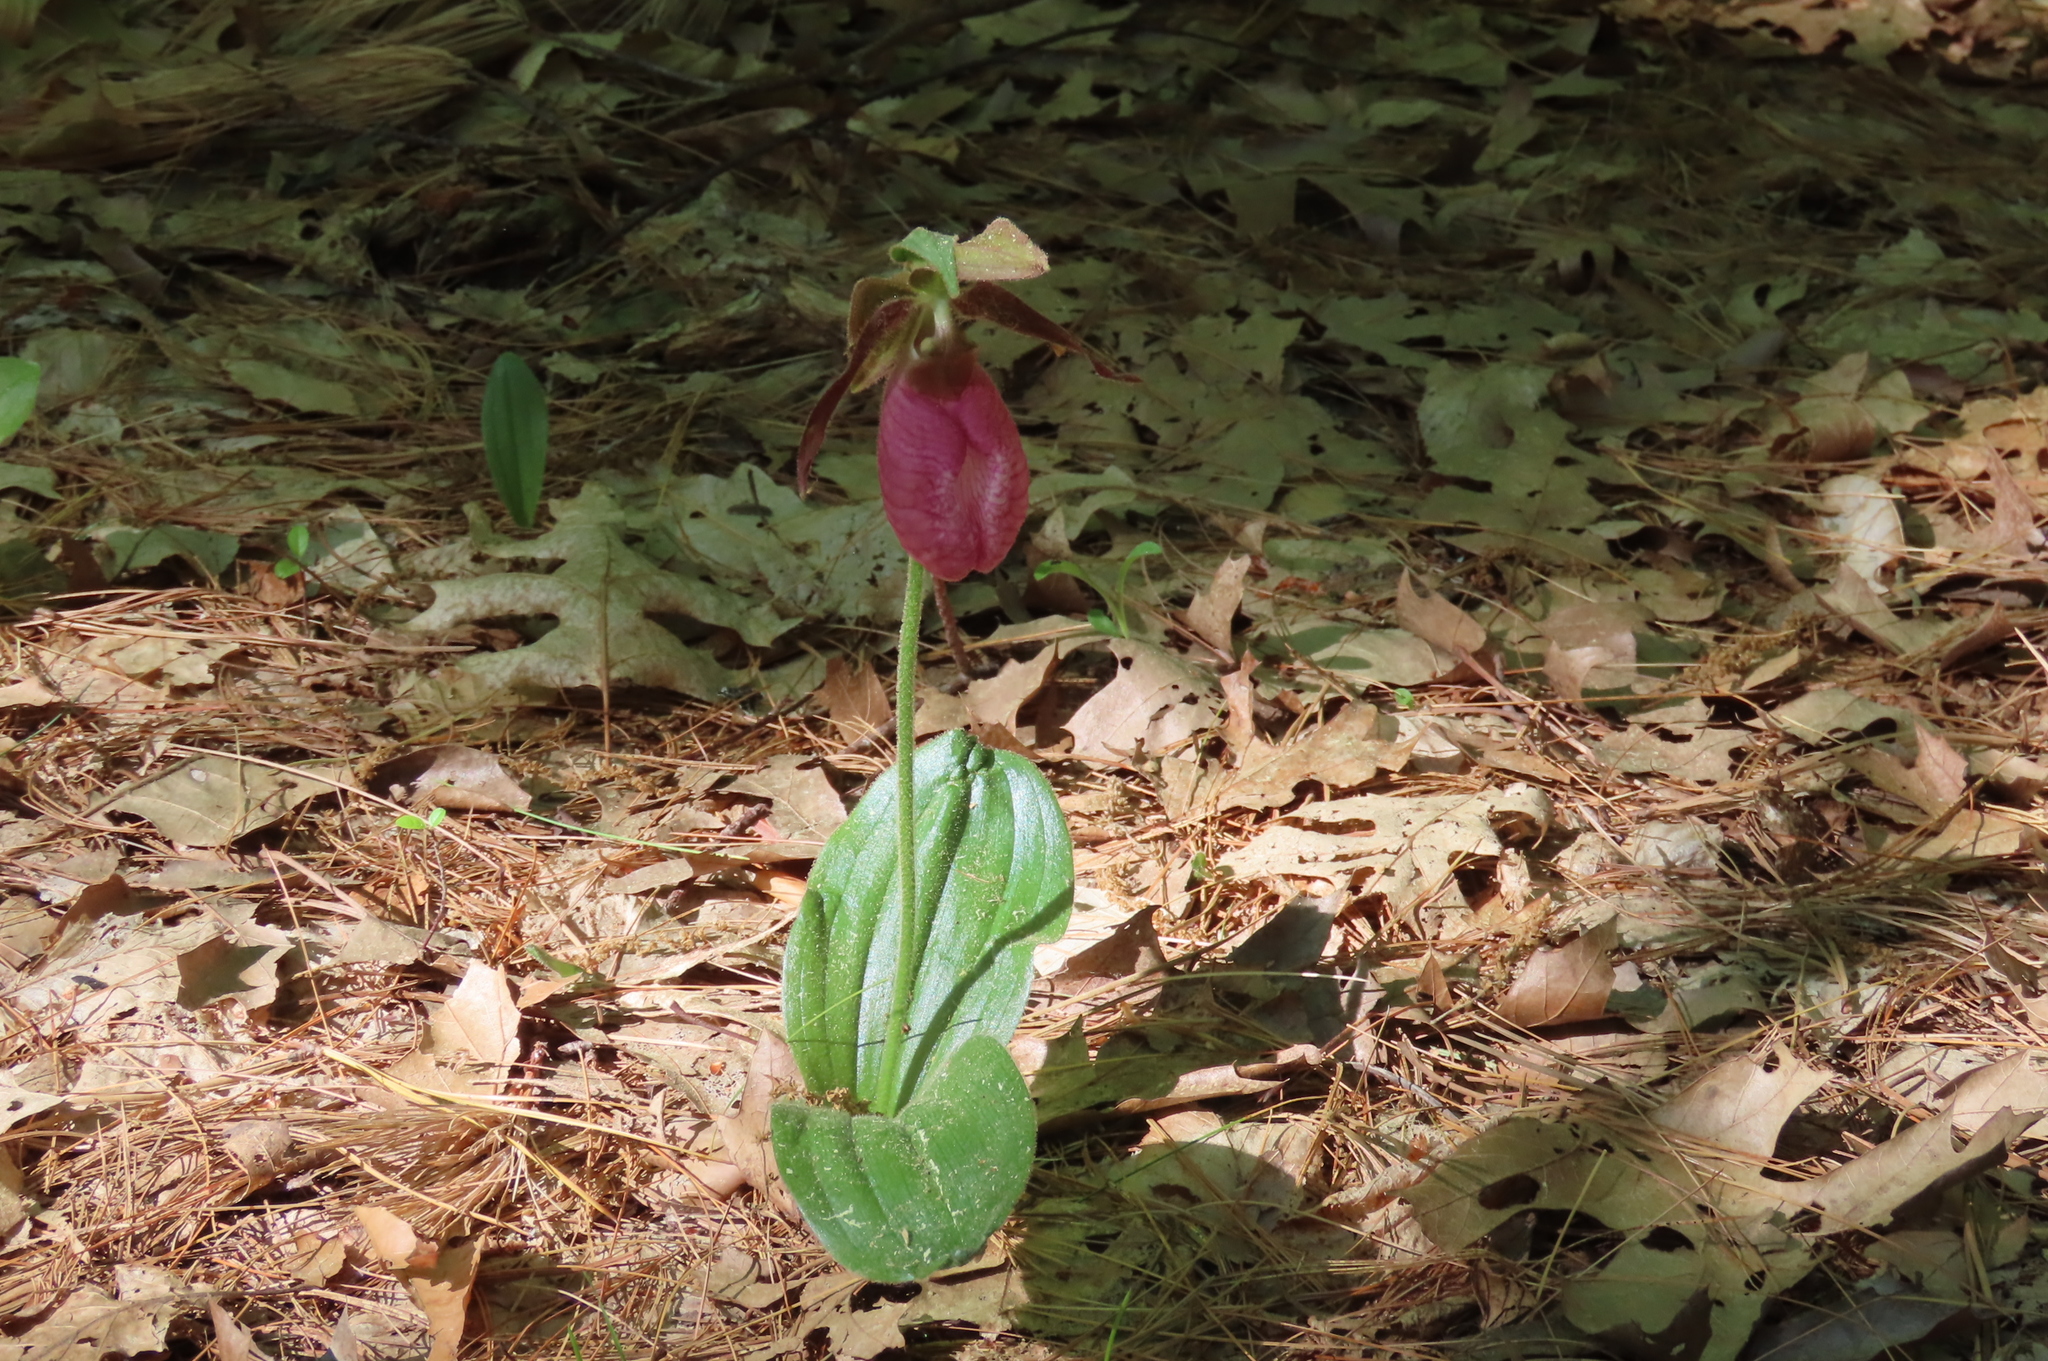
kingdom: Plantae
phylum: Tracheophyta
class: Liliopsida
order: Asparagales
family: Orchidaceae
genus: Cypripedium
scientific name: Cypripedium acaule
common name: Pink lady's-slipper
